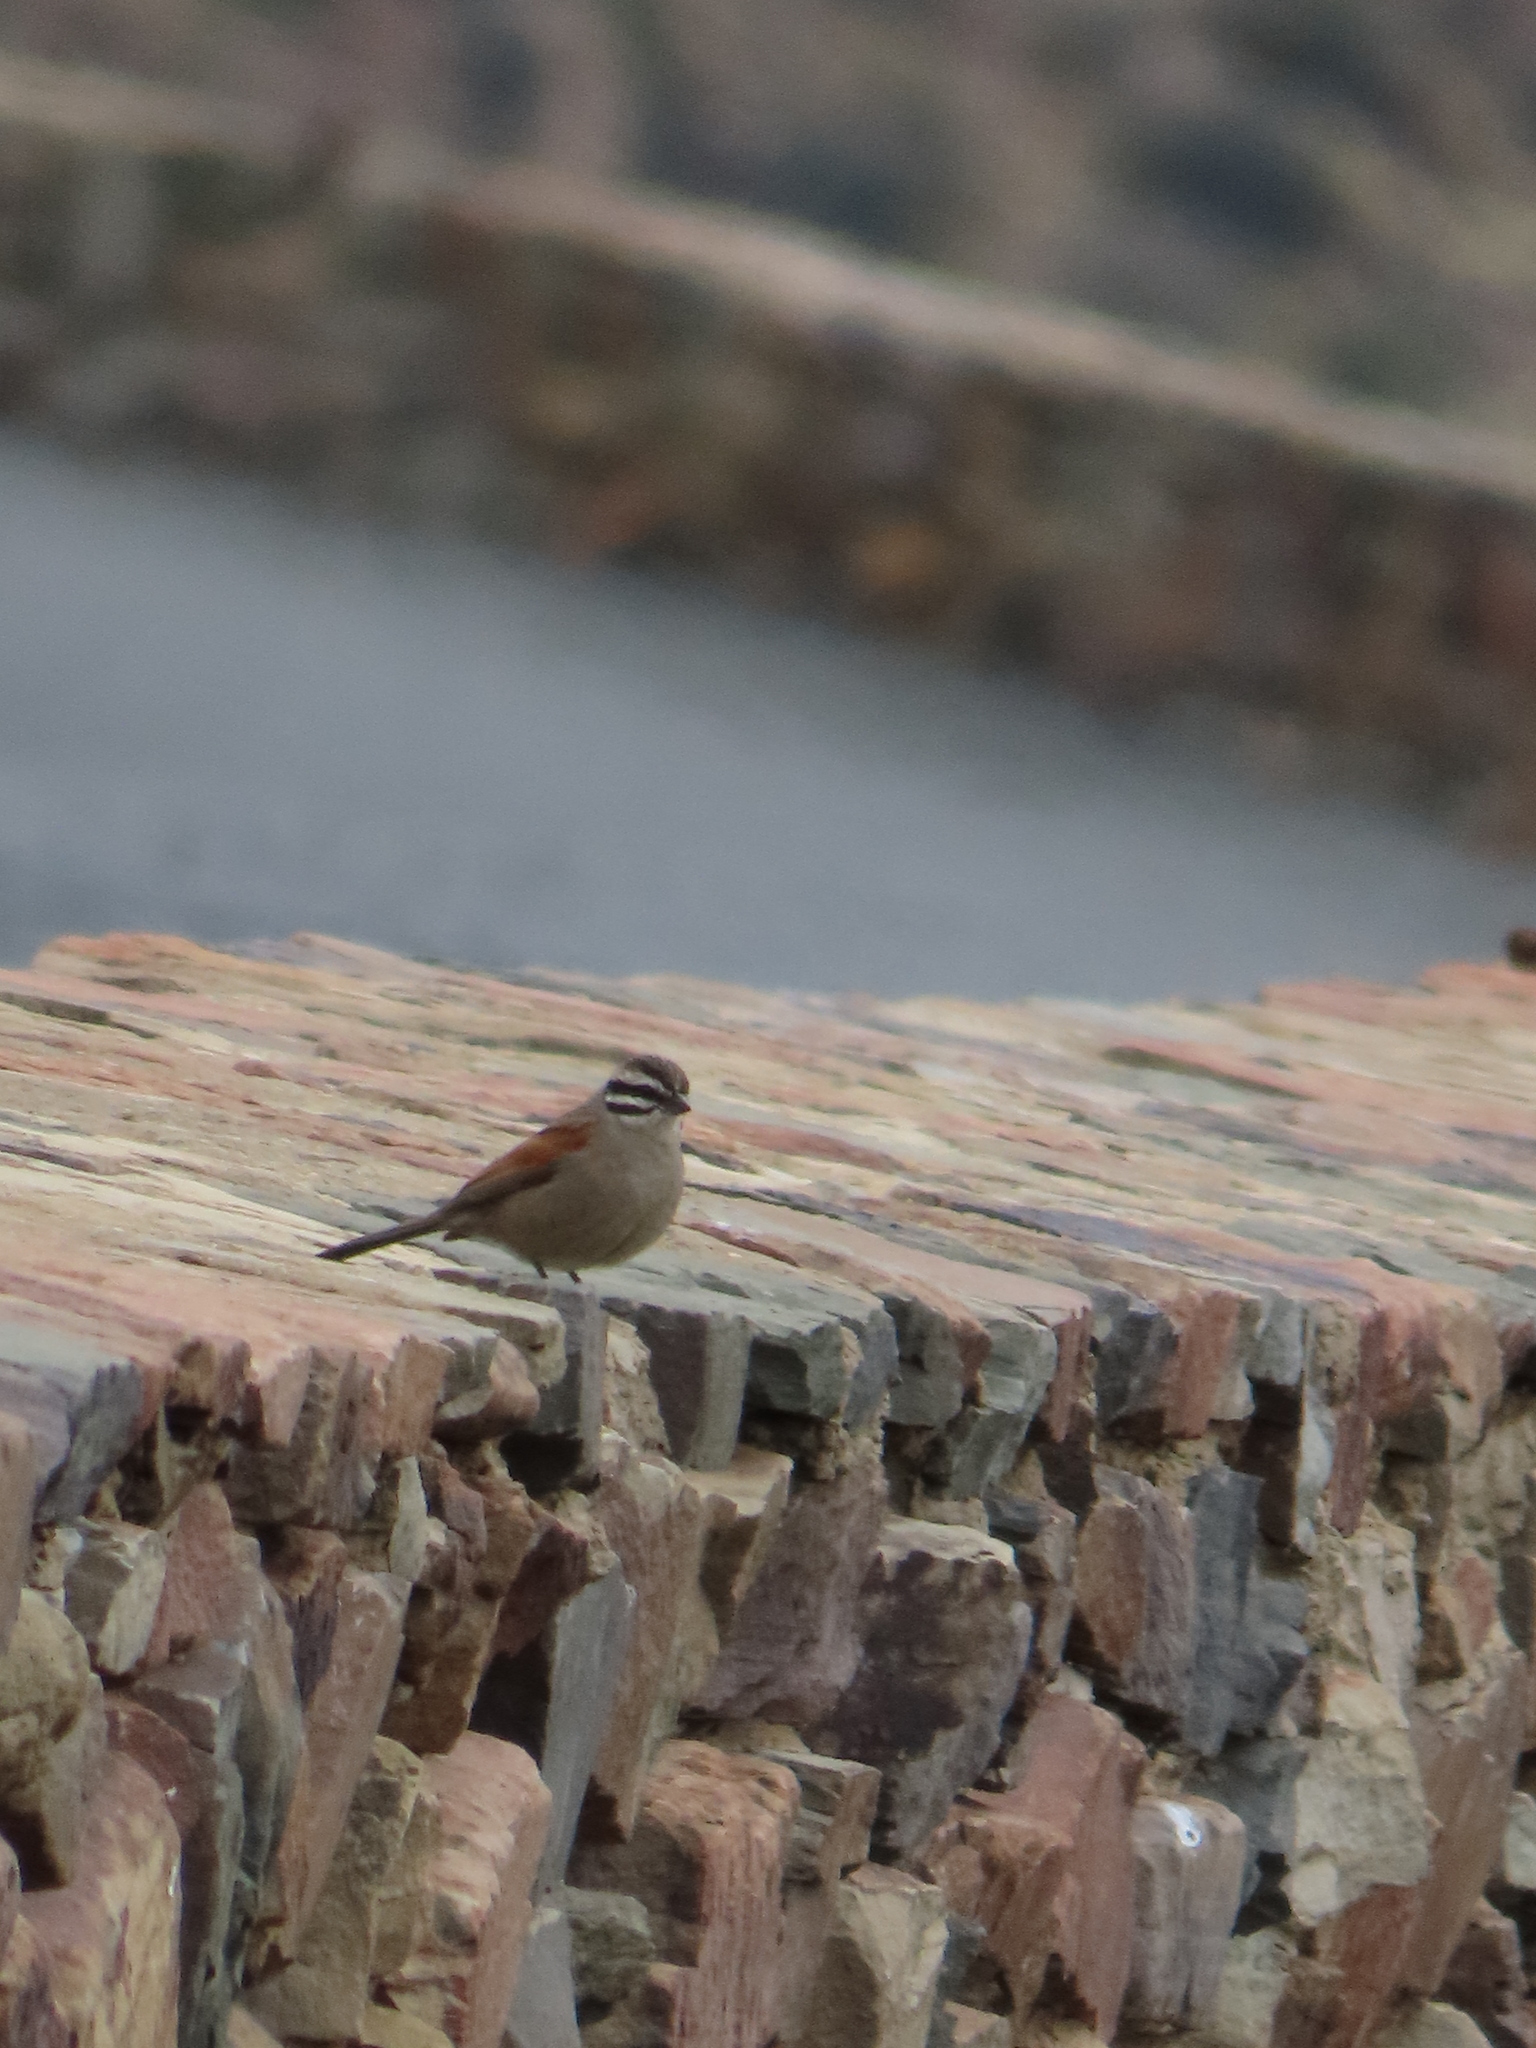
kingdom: Animalia
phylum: Chordata
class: Aves
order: Passeriformes
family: Emberizidae
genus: Emberiza
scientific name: Emberiza capensis
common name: Cape bunting
